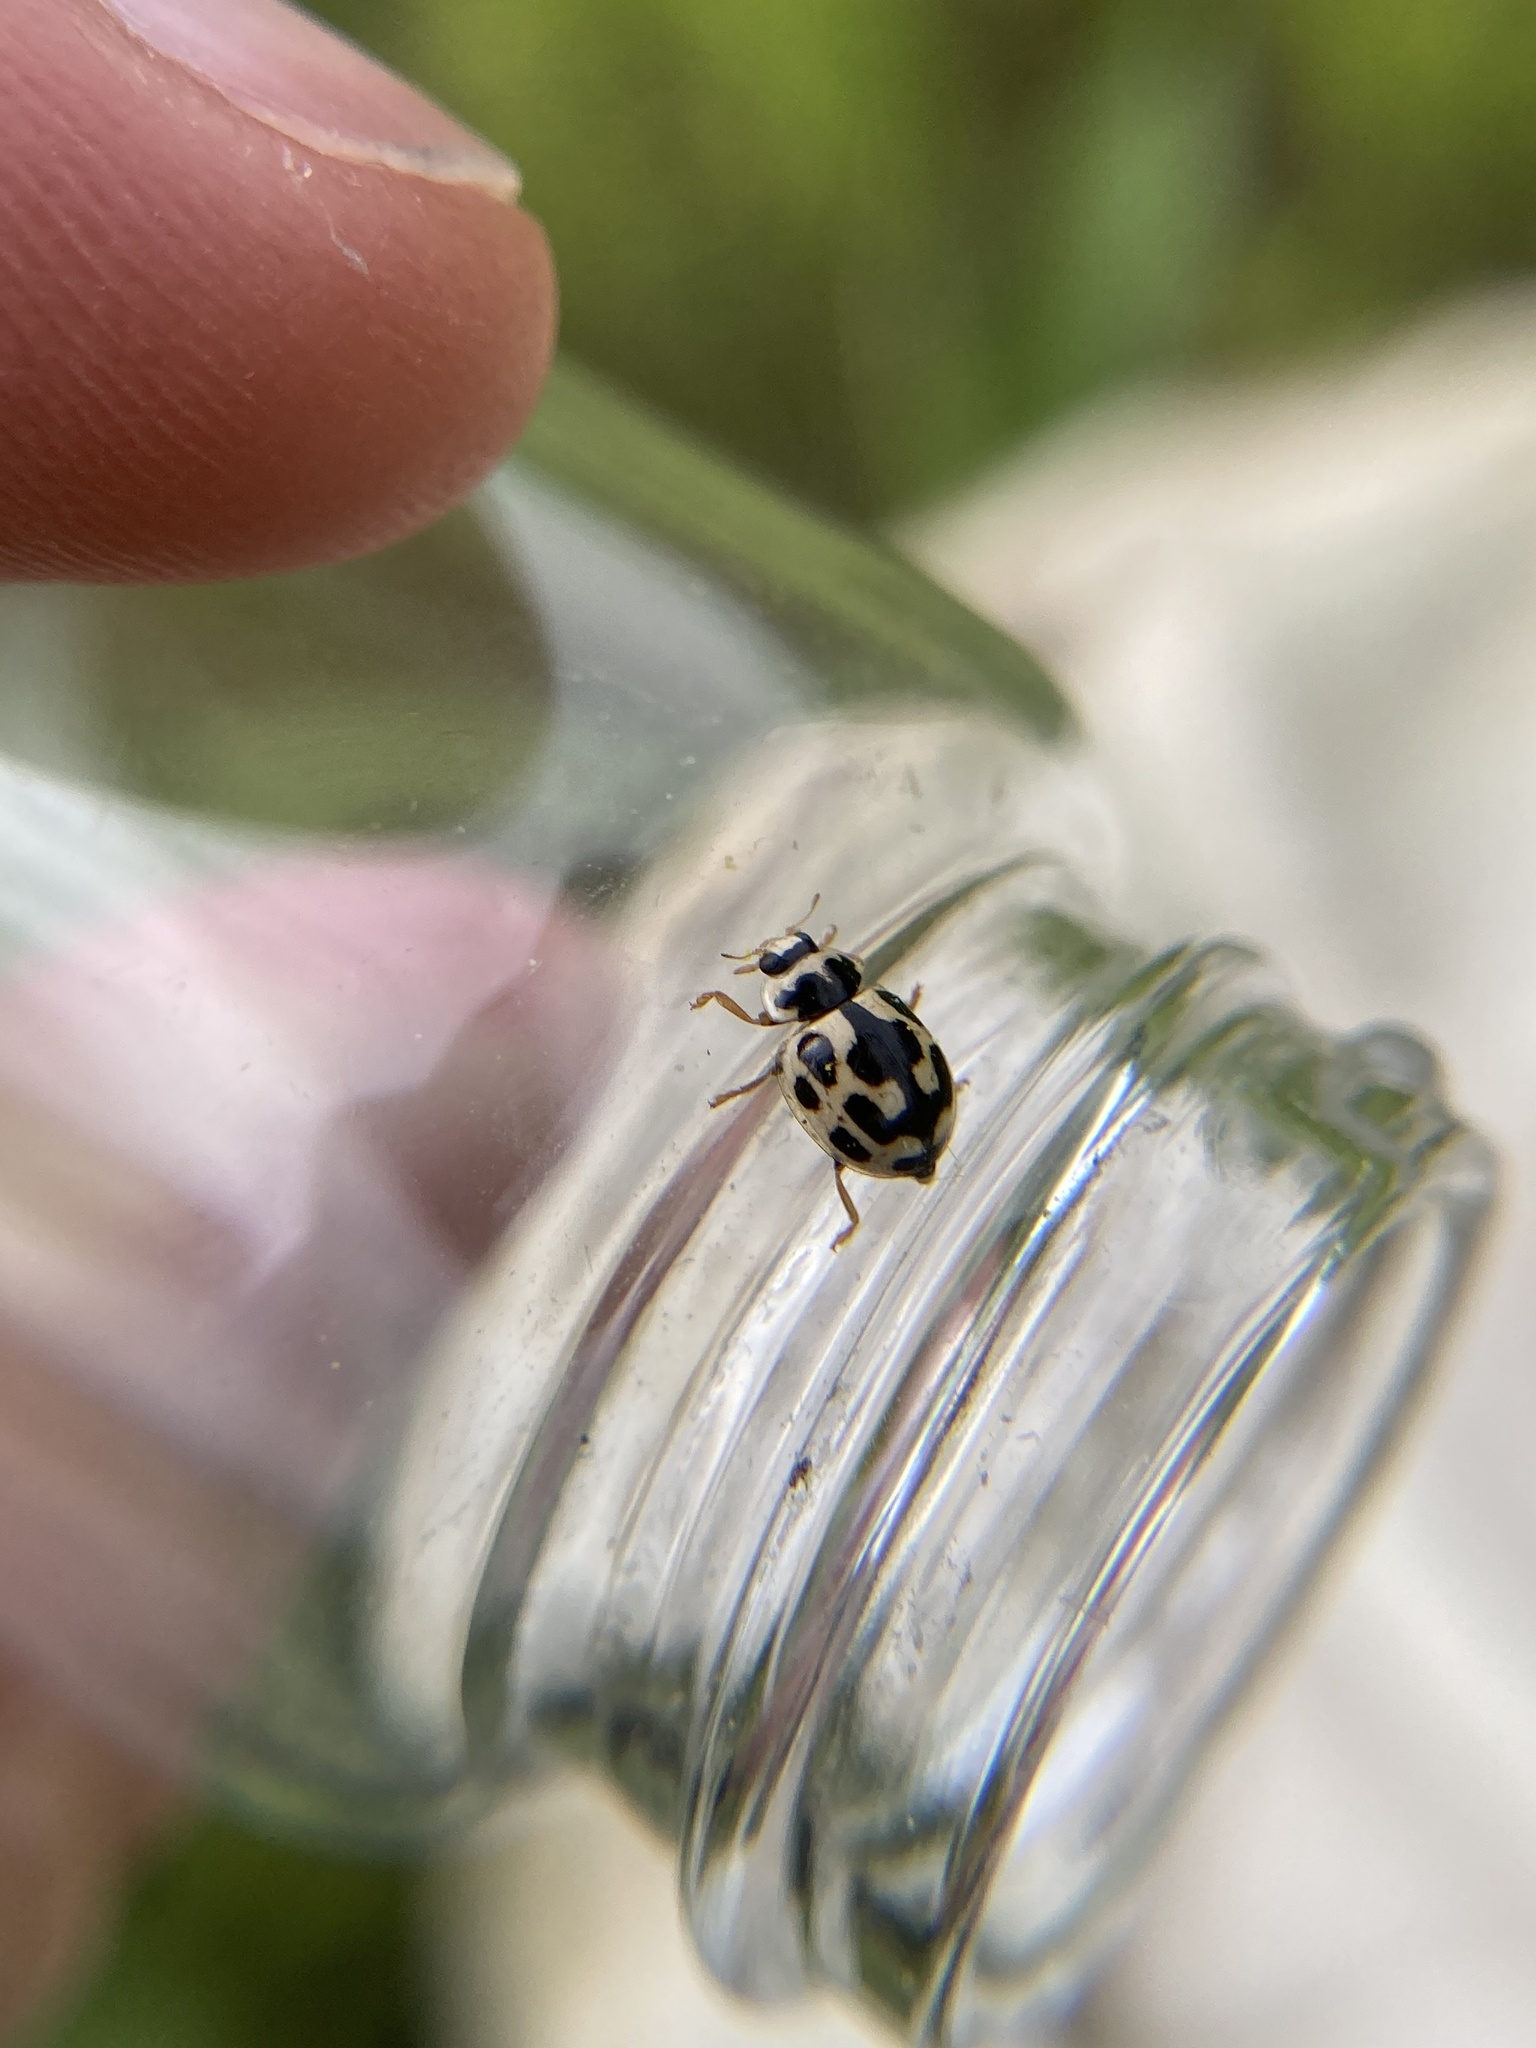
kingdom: Animalia
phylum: Arthropoda
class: Insecta
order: Coleoptera
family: Coccinellidae
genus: Propylaea
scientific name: Propylaea quatuordecimpunctata
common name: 14-spotted ladybird beetle
